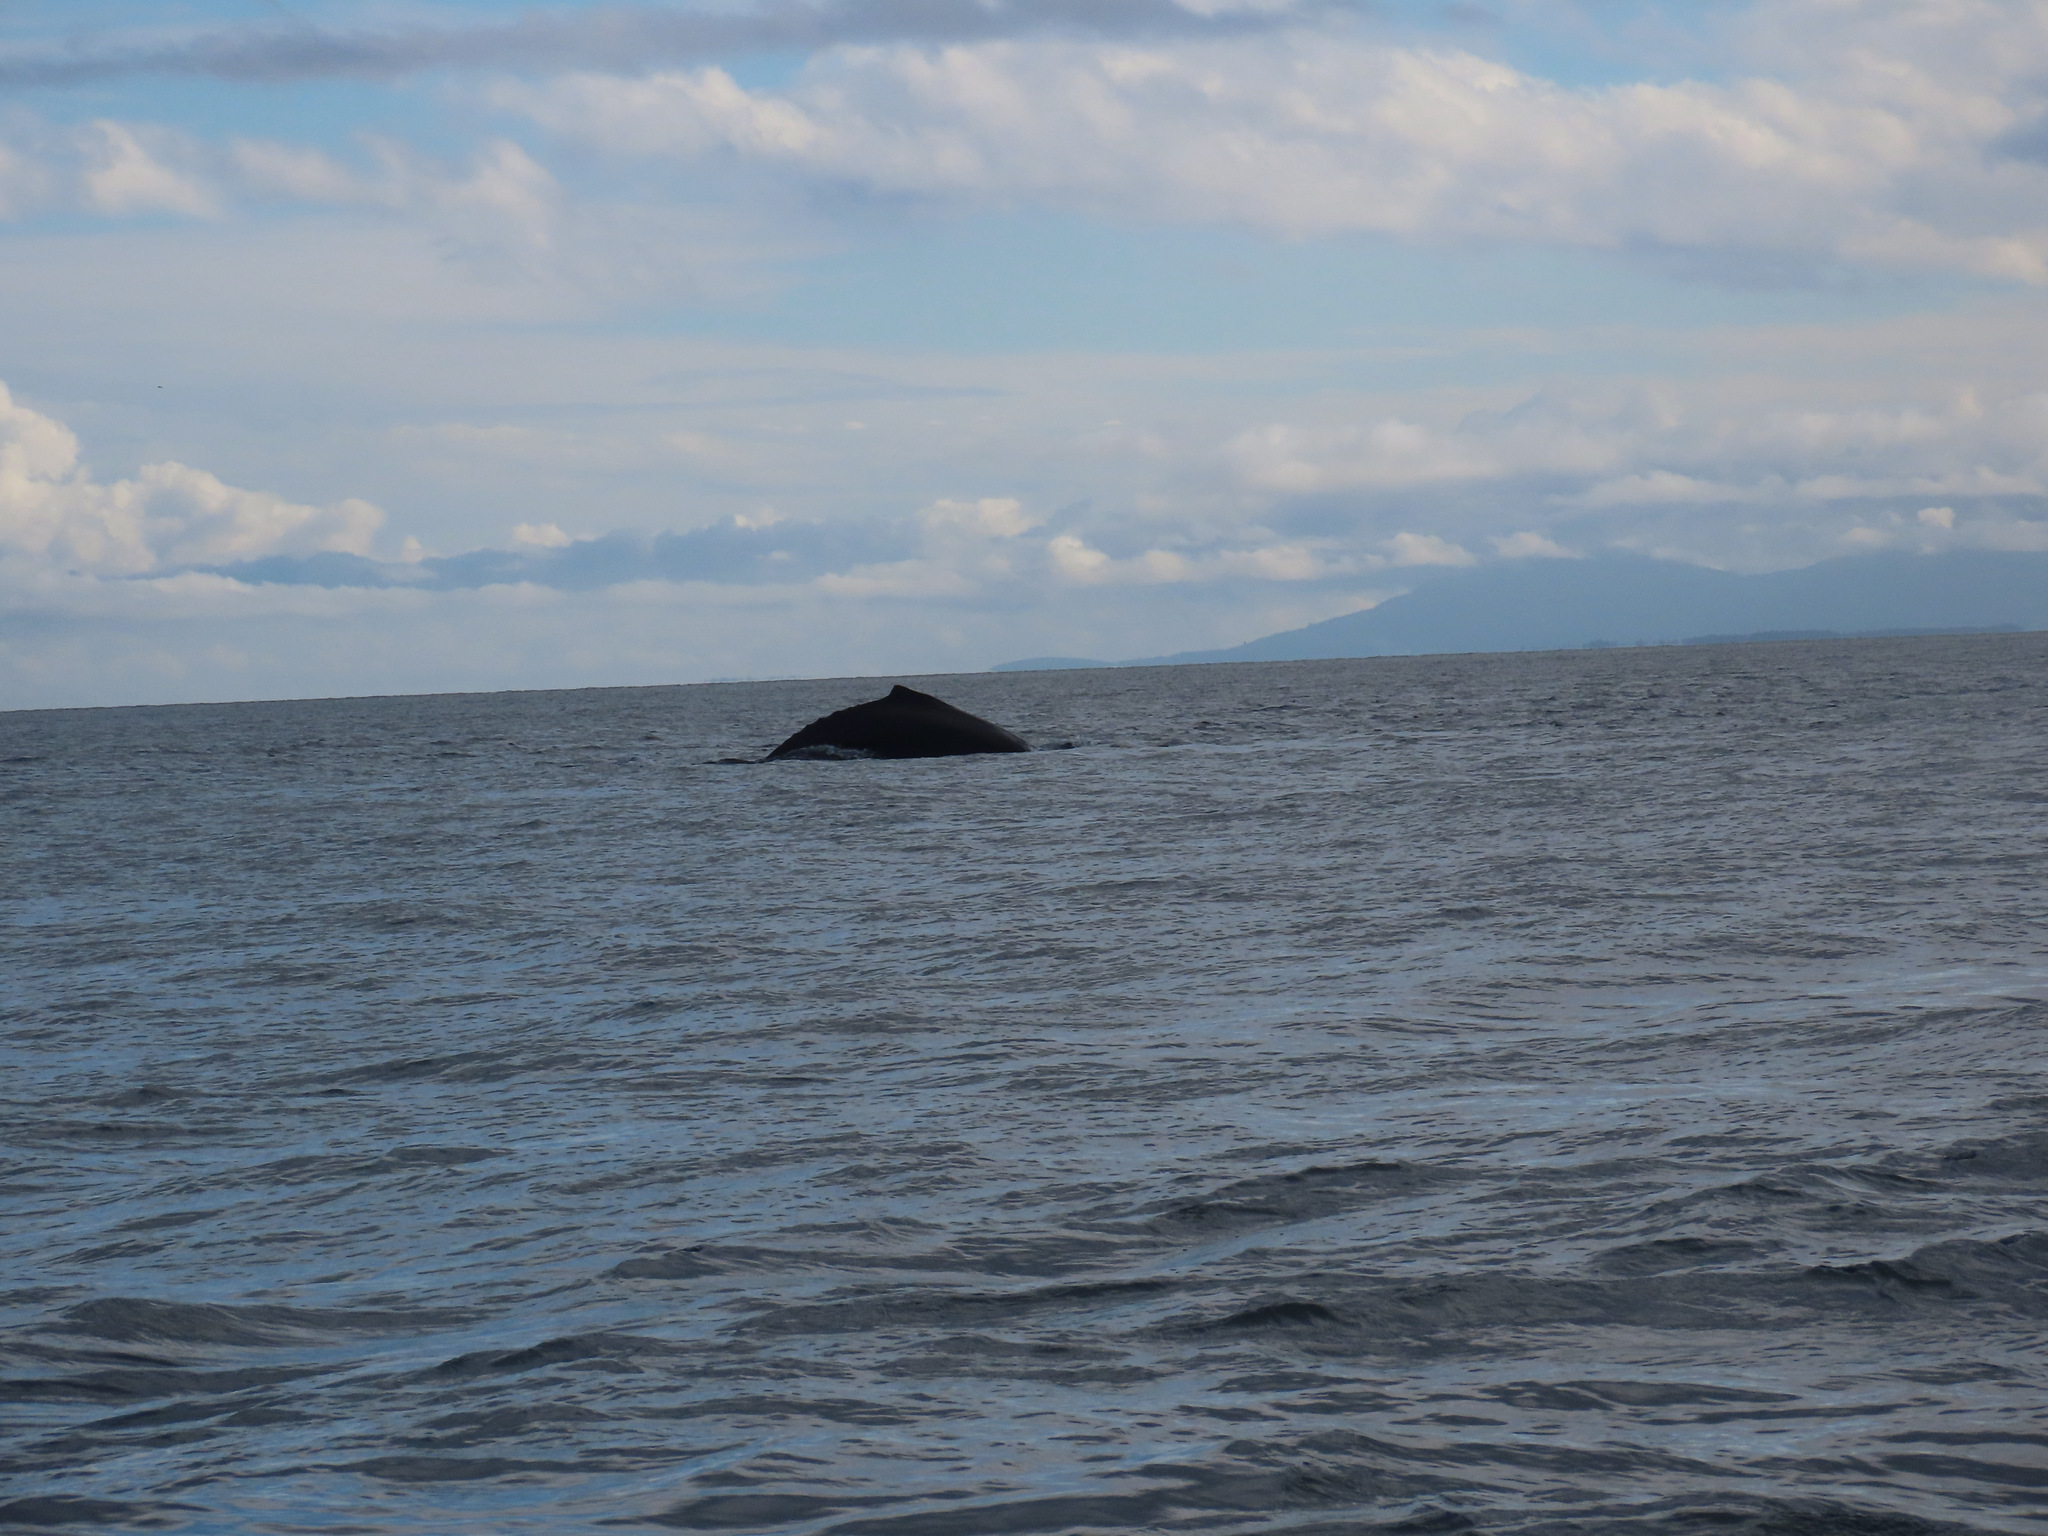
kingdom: Animalia
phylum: Chordata
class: Mammalia
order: Cetacea
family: Balaenopteridae
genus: Megaptera
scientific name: Megaptera novaeangliae
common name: Humpback whale
